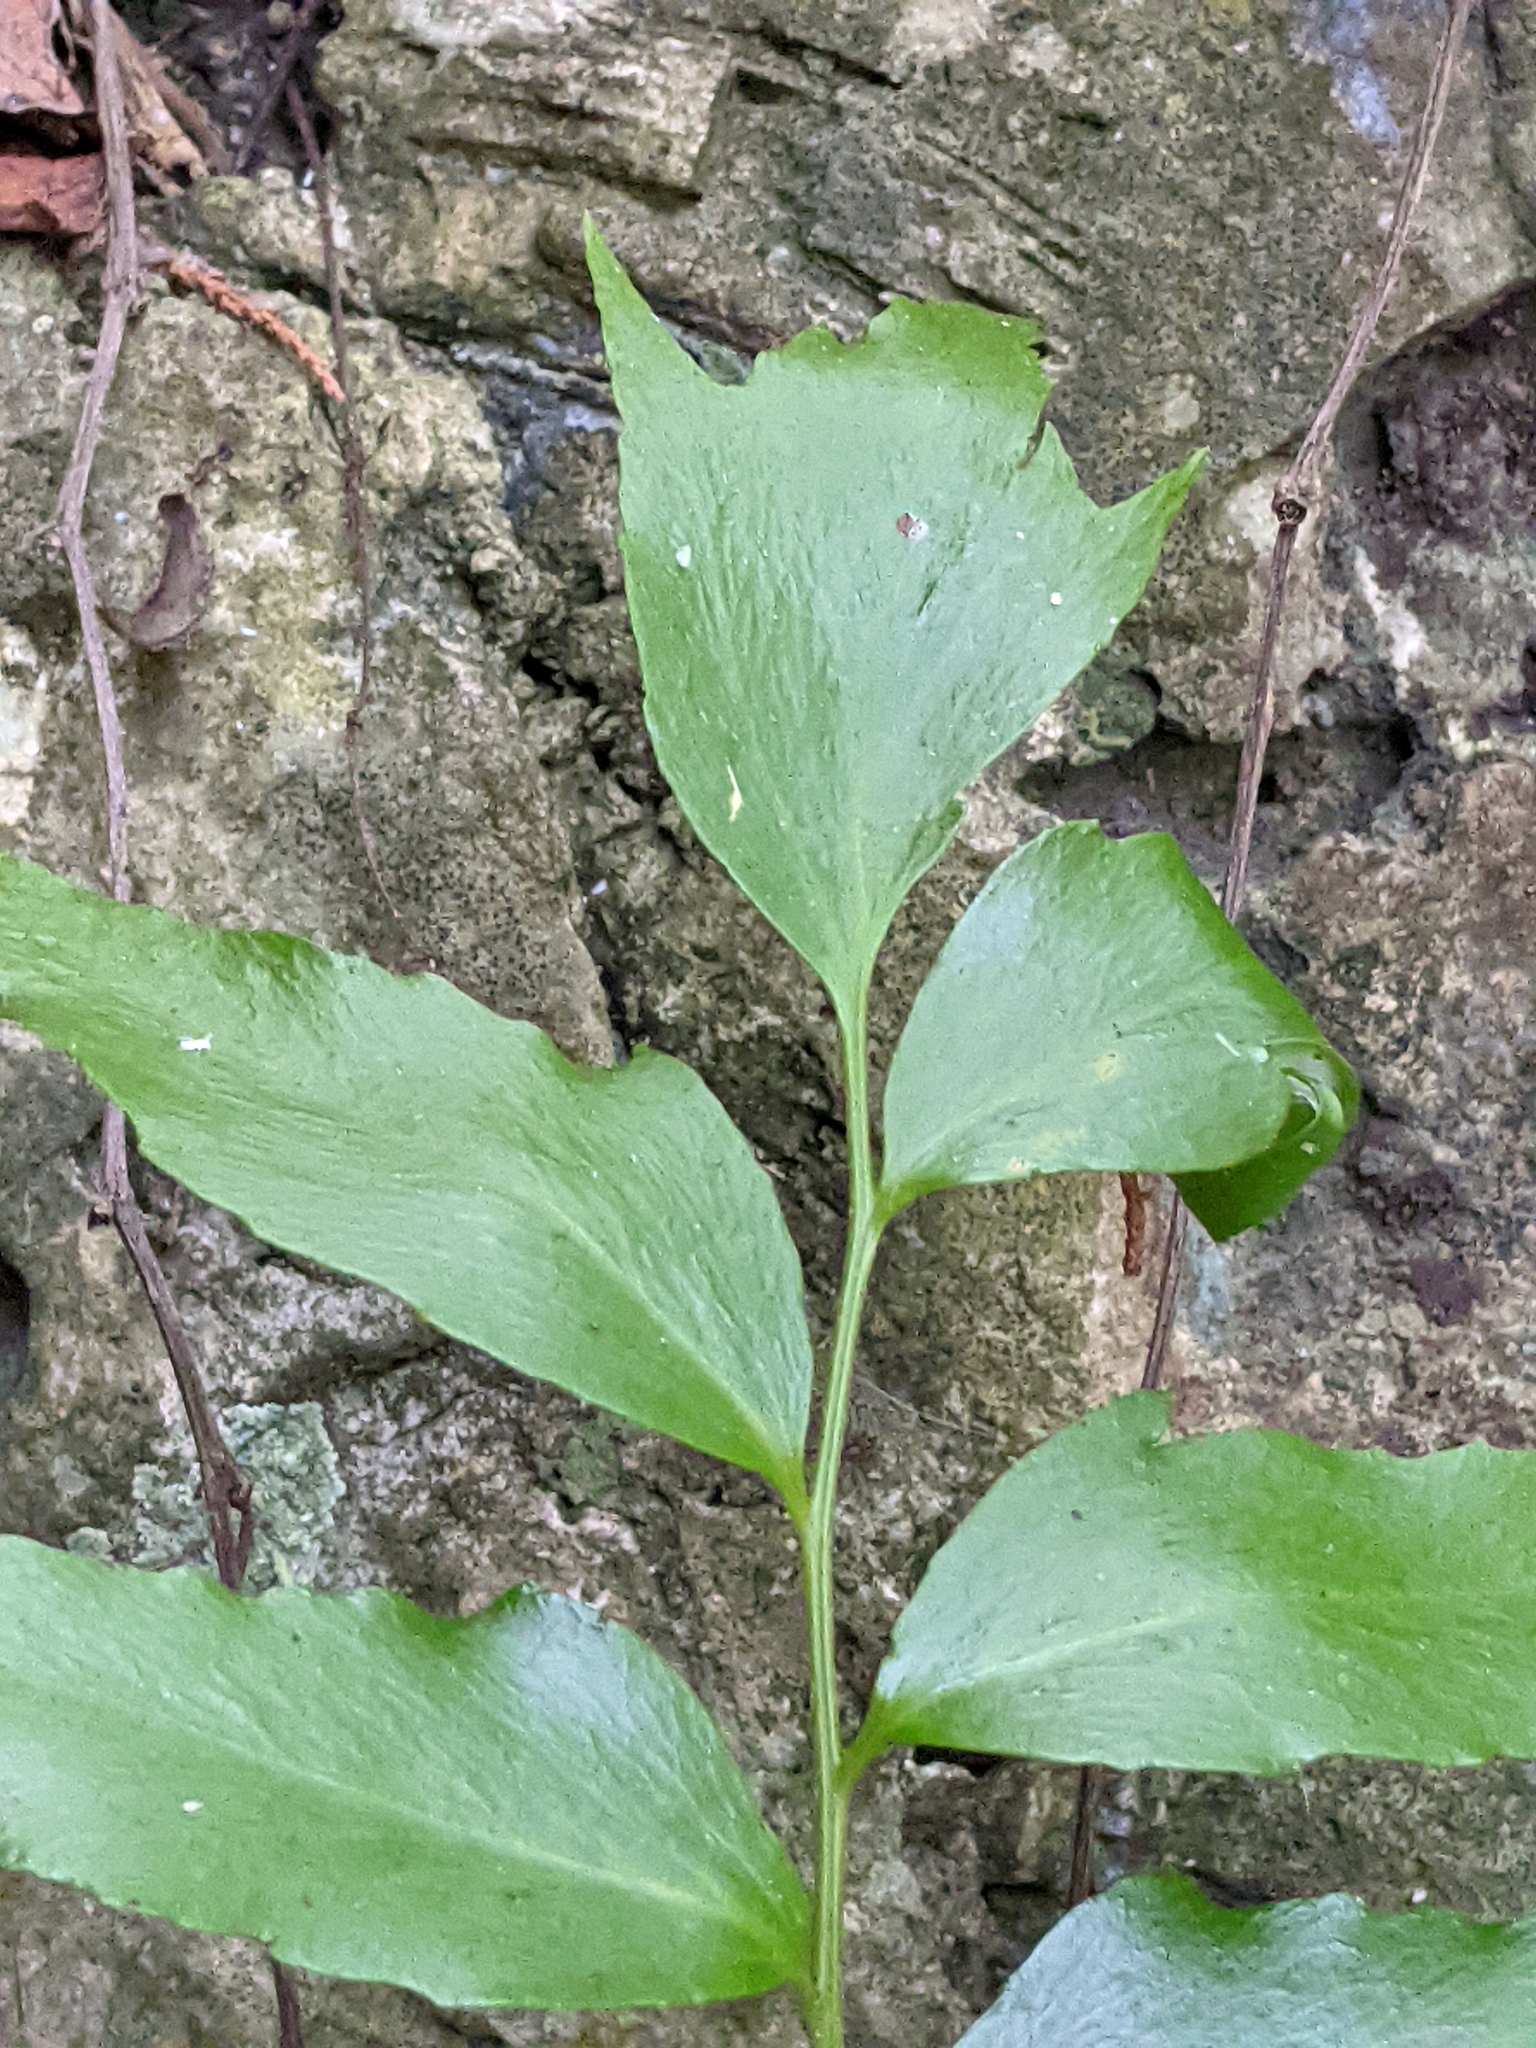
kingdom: Plantae
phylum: Tracheophyta
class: Polypodiopsida
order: Polypodiales
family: Dryopteridaceae
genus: Cyrtomium
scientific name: Cyrtomium falcatum
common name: House holly-fern
